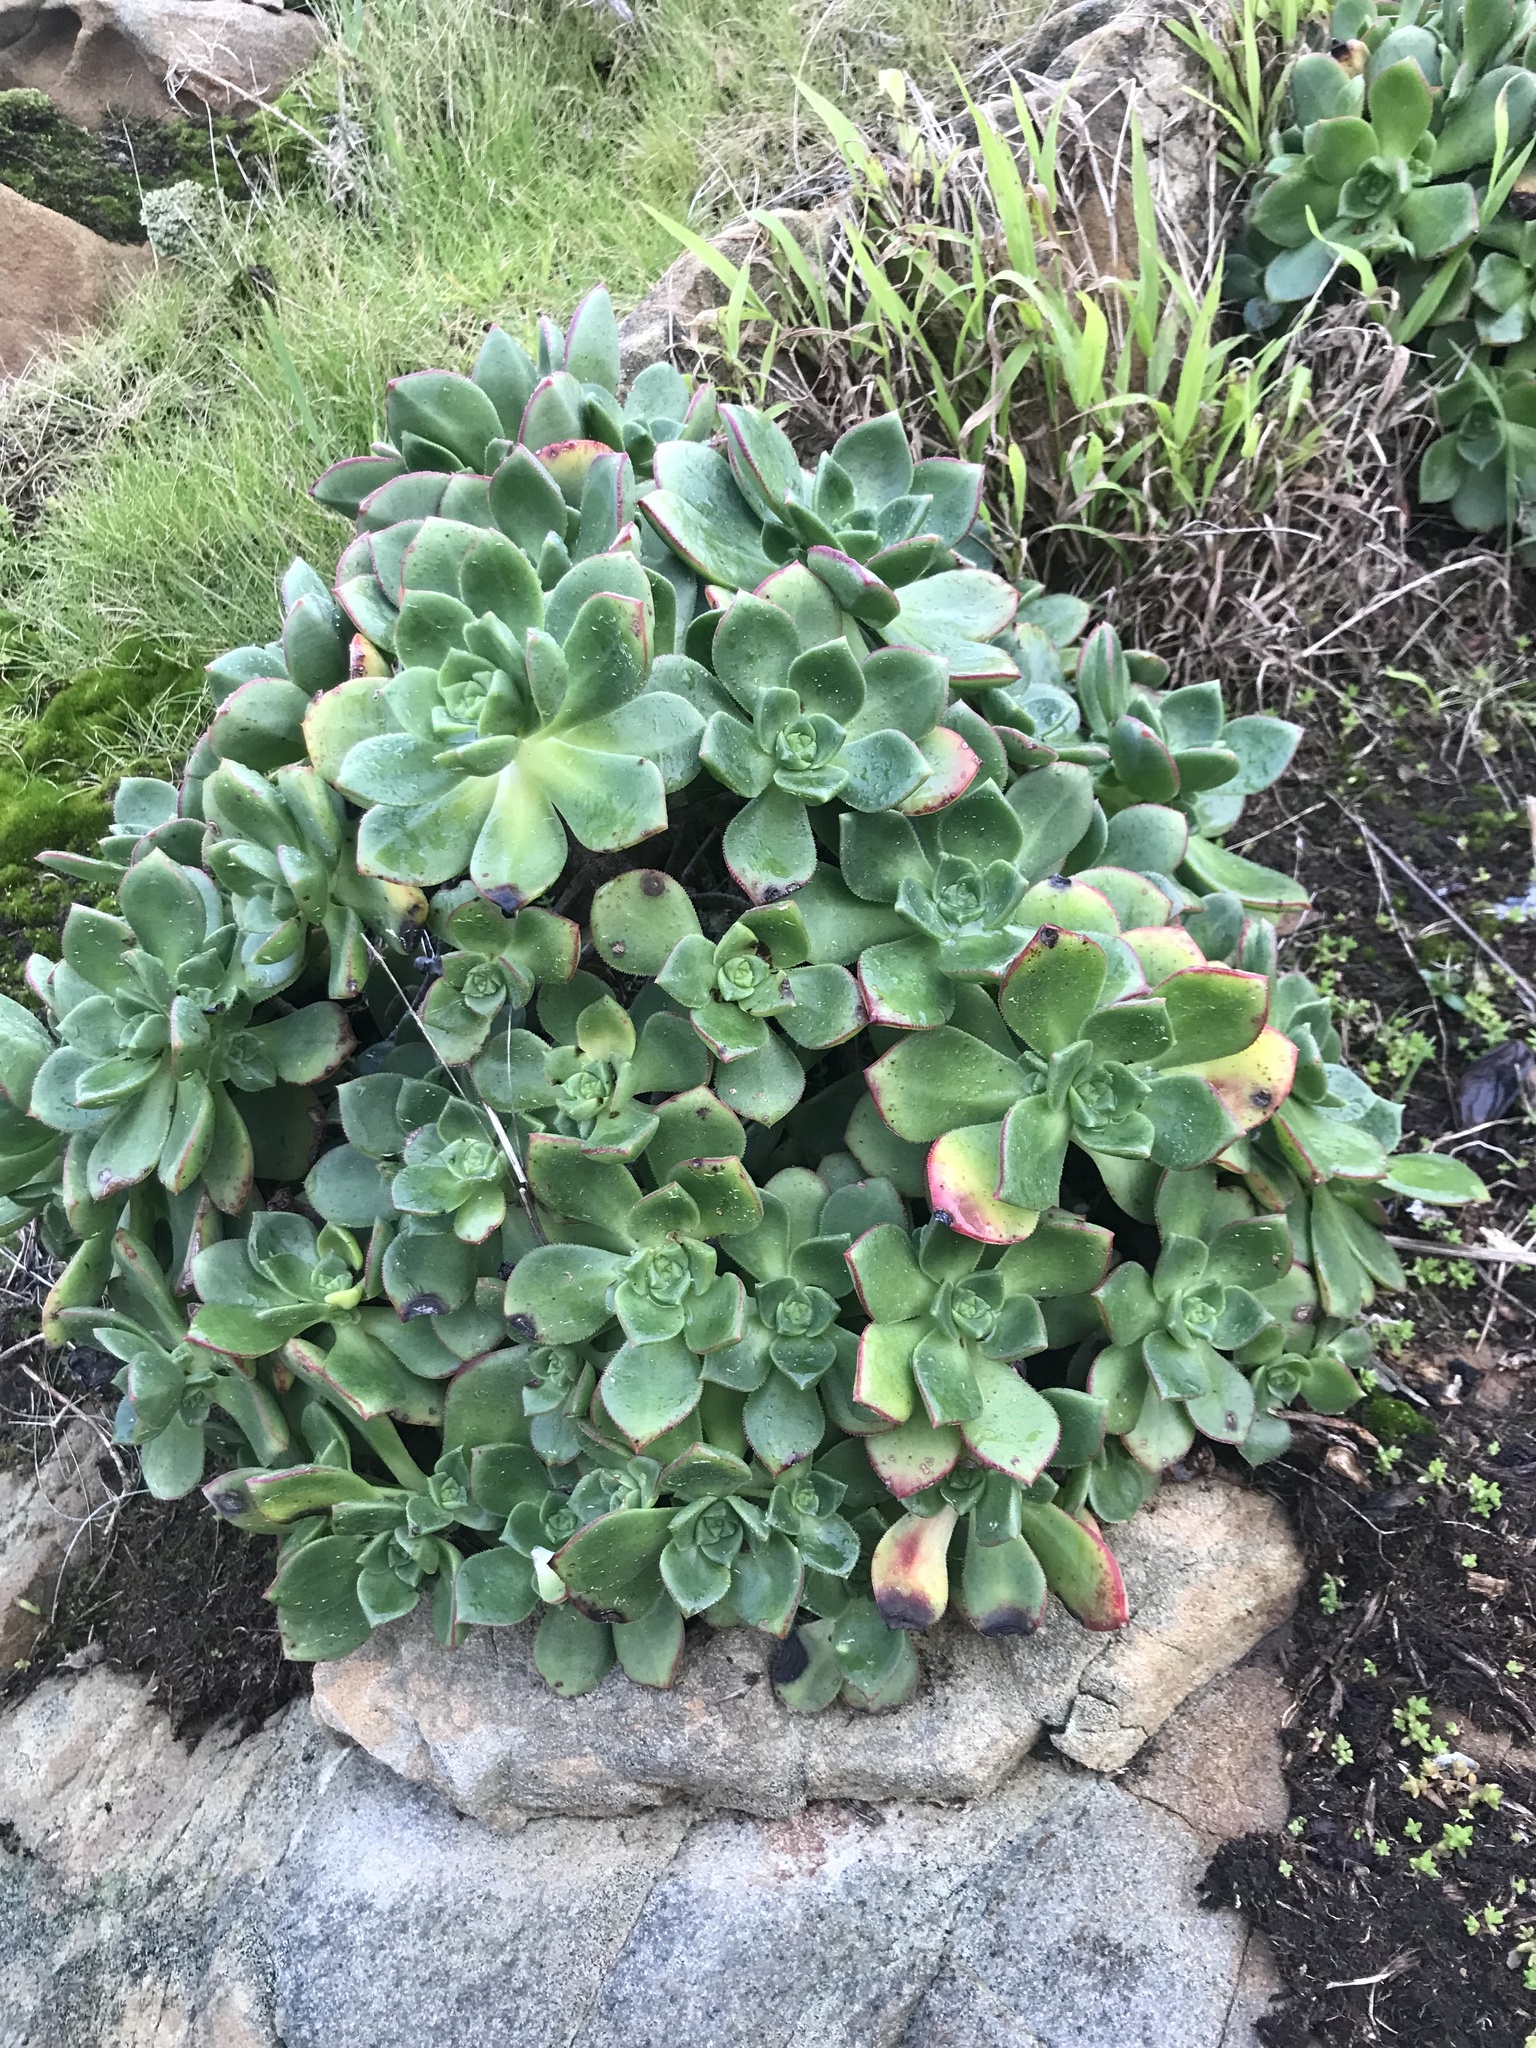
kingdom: Plantae
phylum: Tracheophyta
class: Magnoliopsida
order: Saxifragales
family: Crassulaceae
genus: Aeonium
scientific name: Aeonium haworthii
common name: Haworth's aeonium
